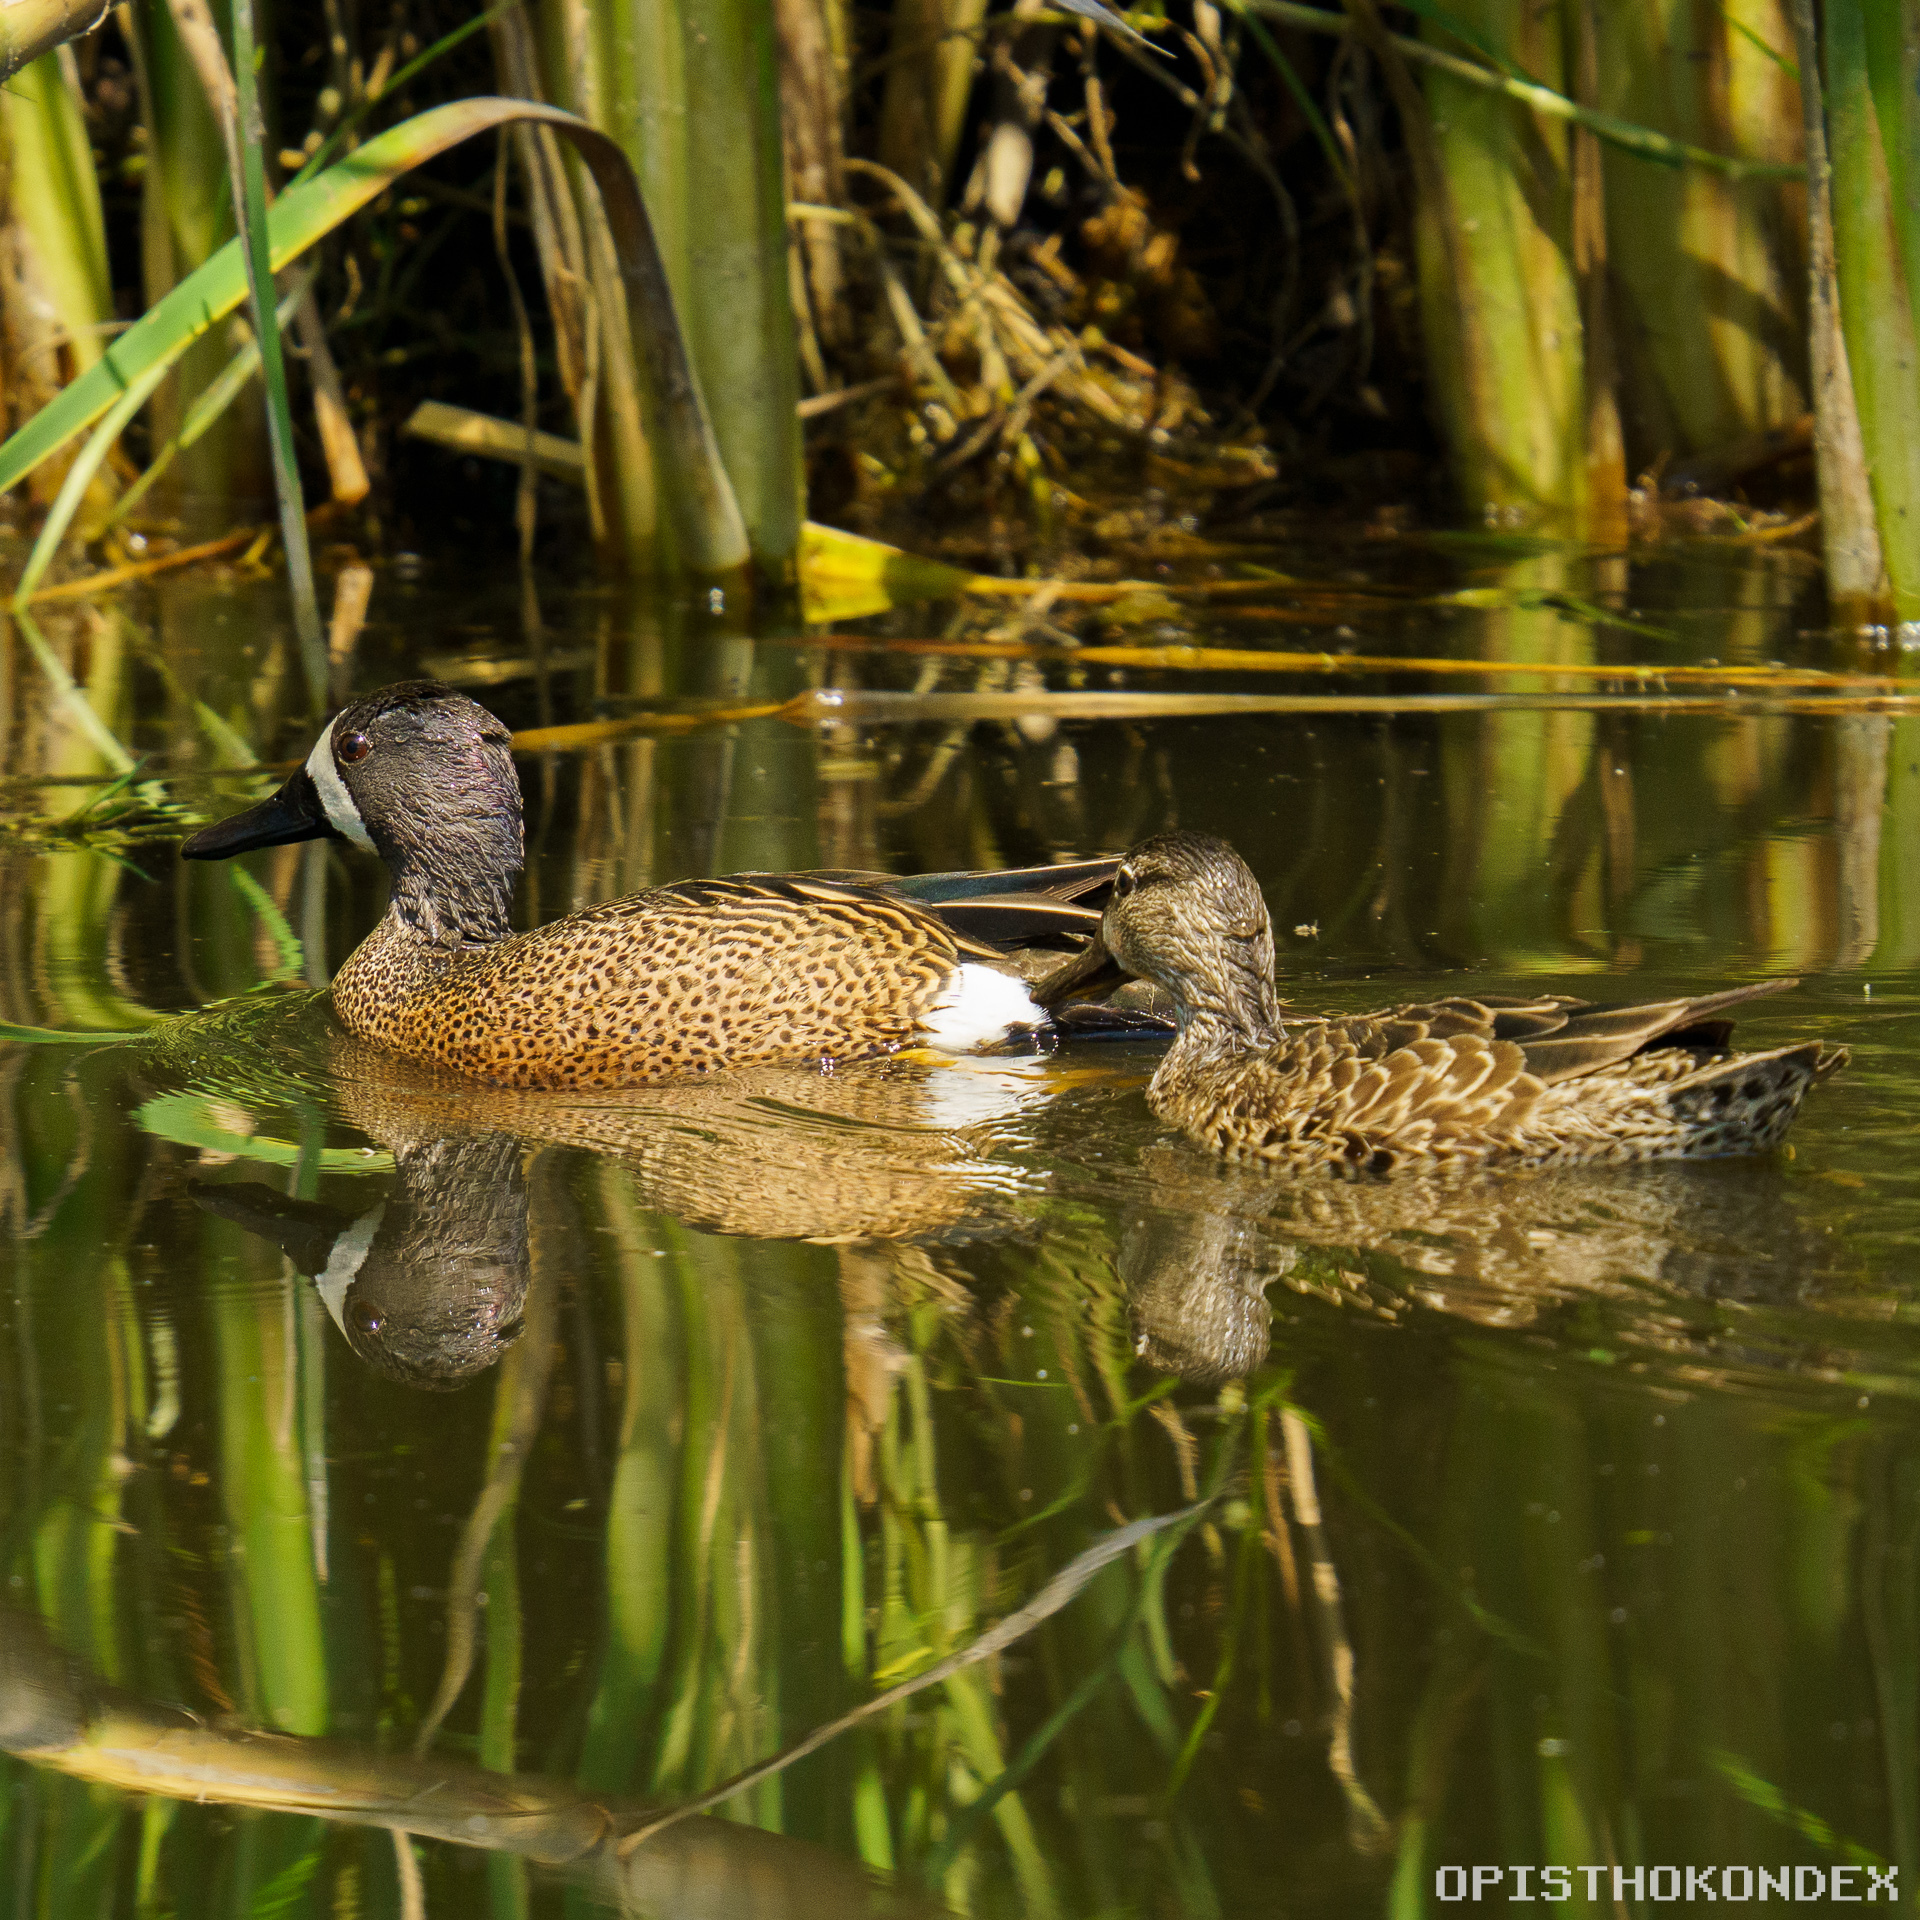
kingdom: Animalia
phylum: Chordata
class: Aves
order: Anseriformes
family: Anatidae
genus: Spatula
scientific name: Spatula discors
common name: Blue-winged teal
